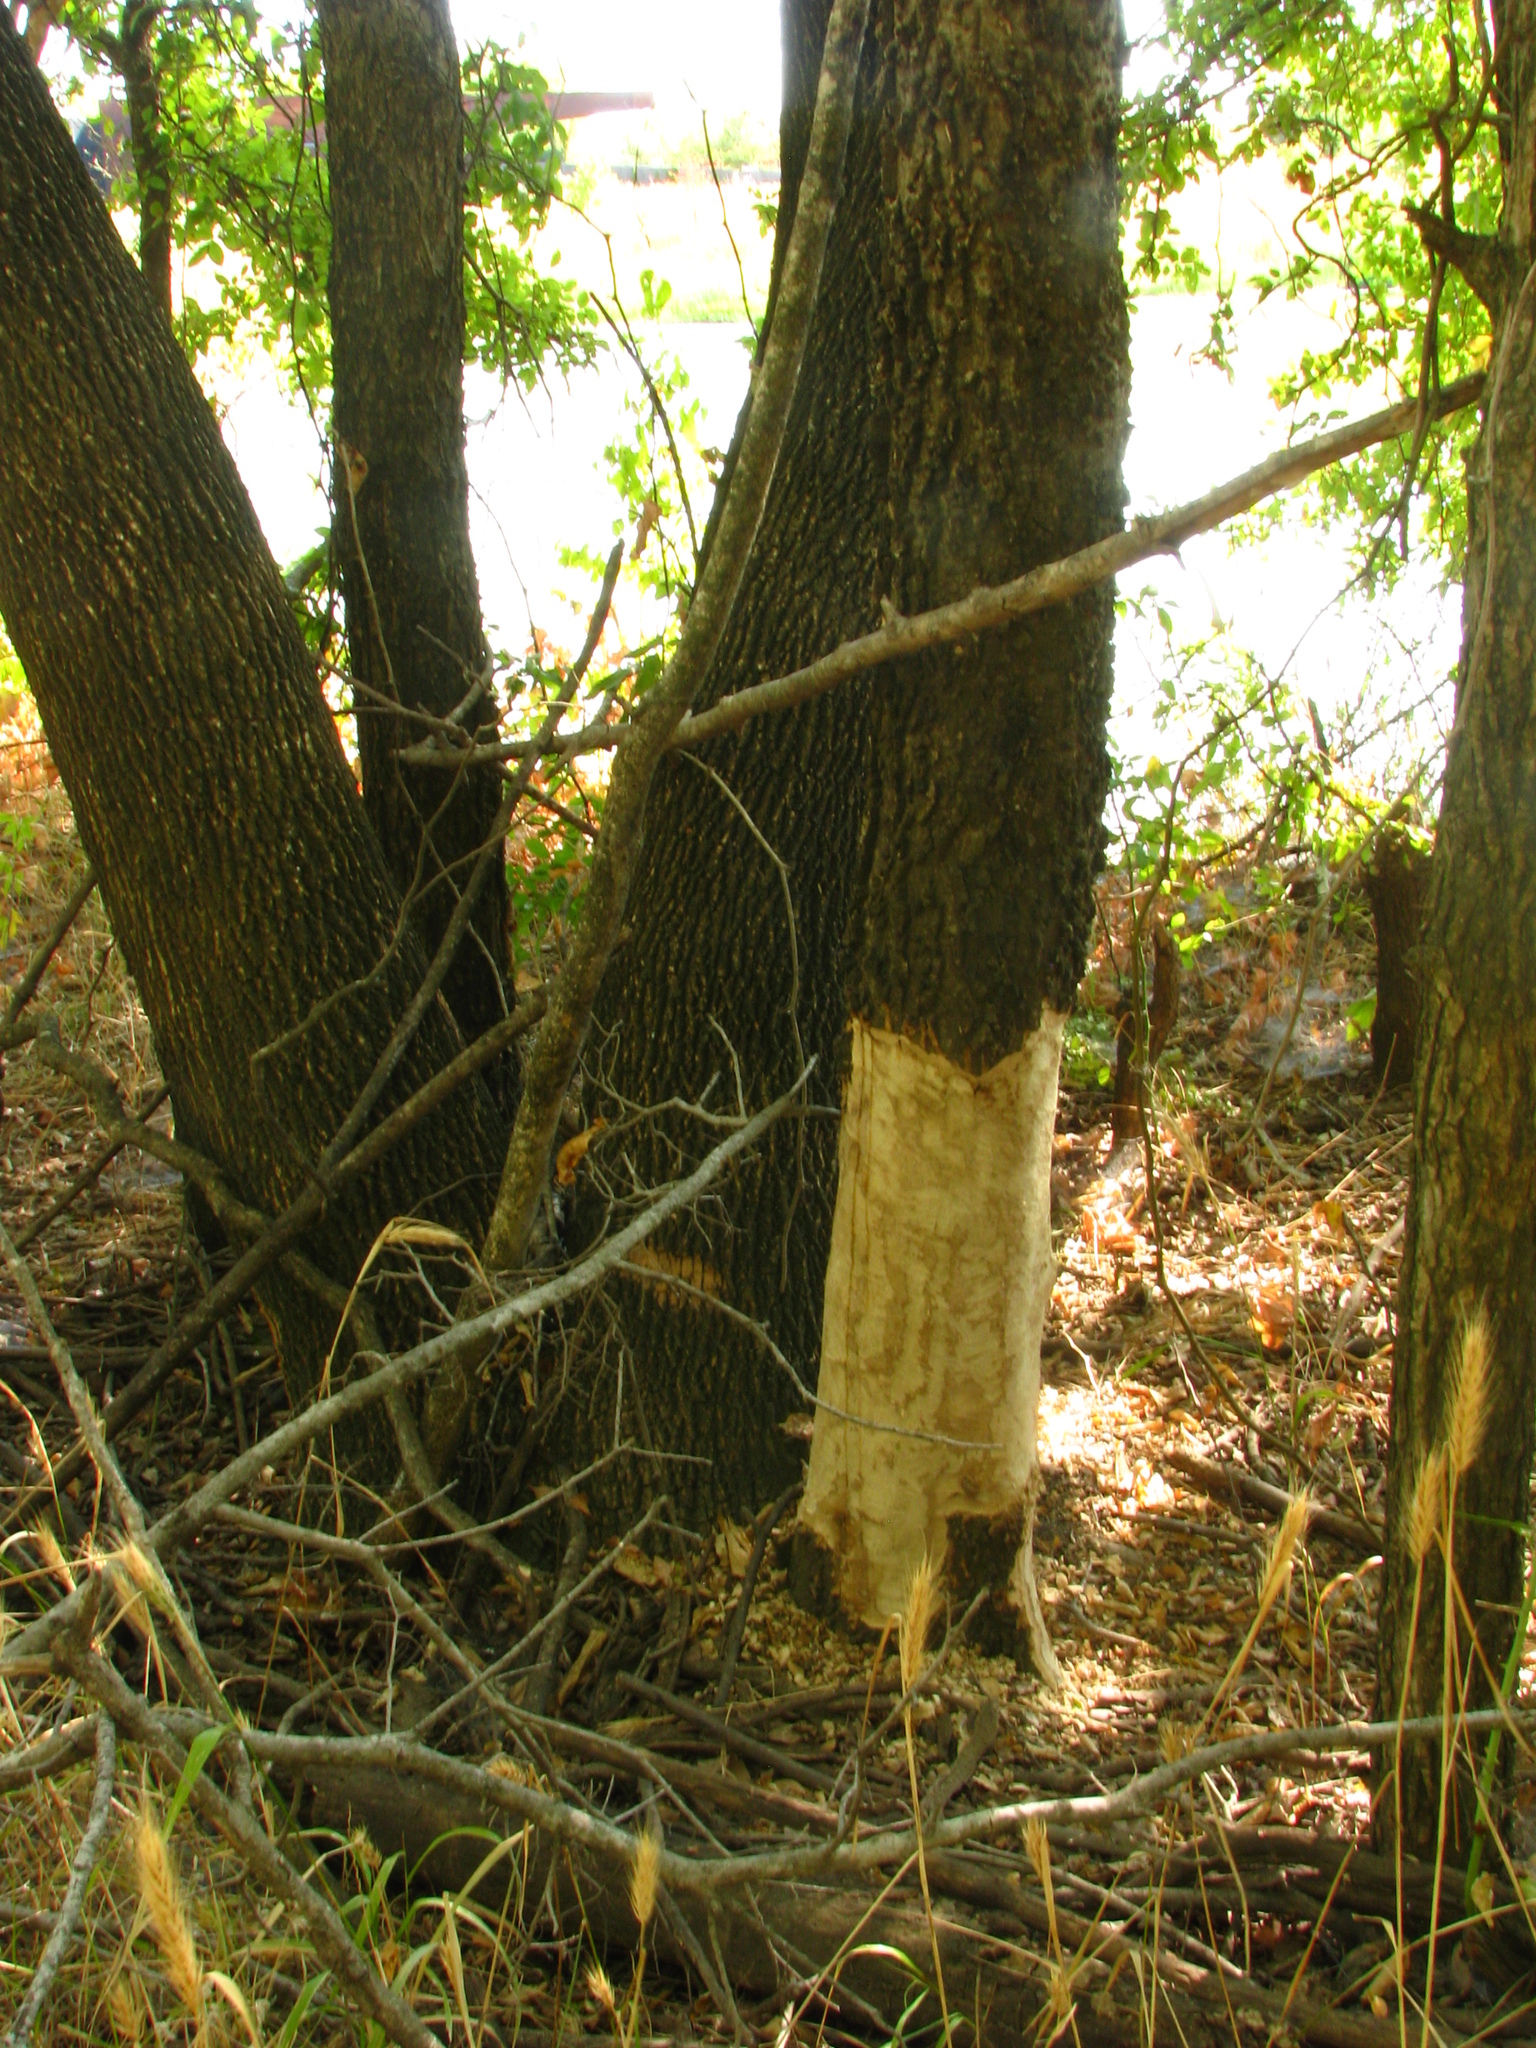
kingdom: Animalia
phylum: Chordata
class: Mammalia
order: Rodentia
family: Castoridae
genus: Castor
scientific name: Castor canadensis
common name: American beaver
